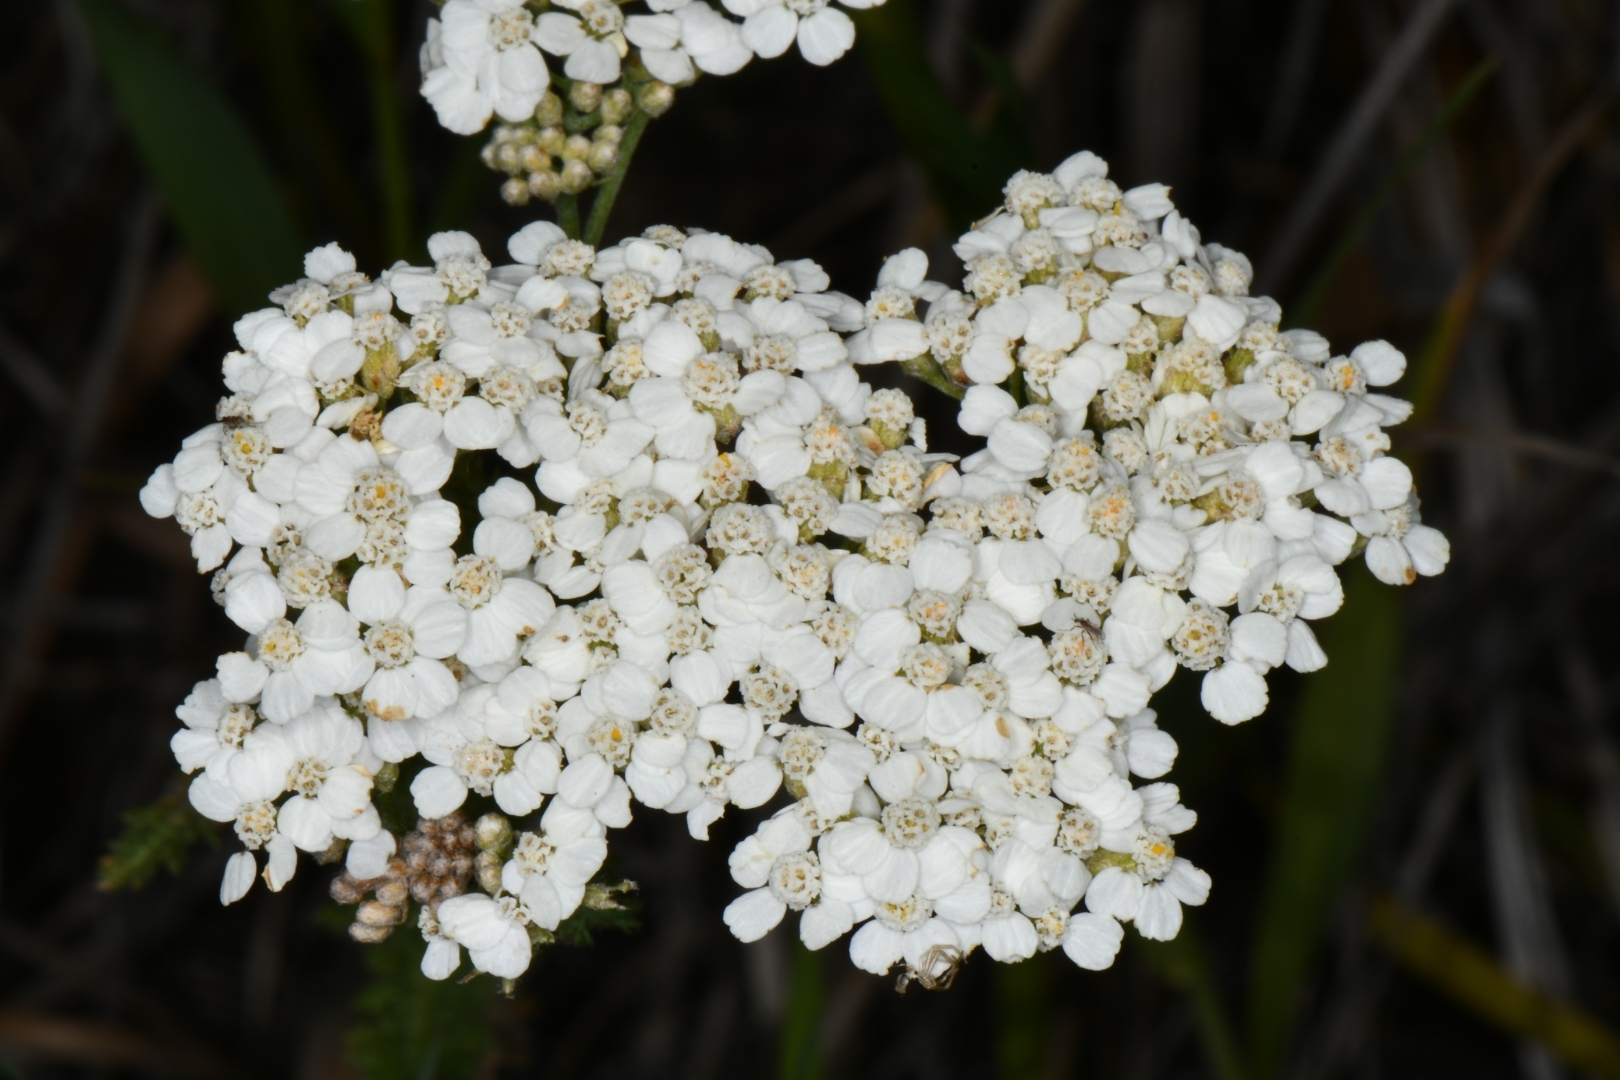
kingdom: Plantae
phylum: Tracheophyta
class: Magnoliopsida
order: Asterales
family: Asteraceae
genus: Achillea
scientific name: Achillea millefolium
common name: Yarrow
